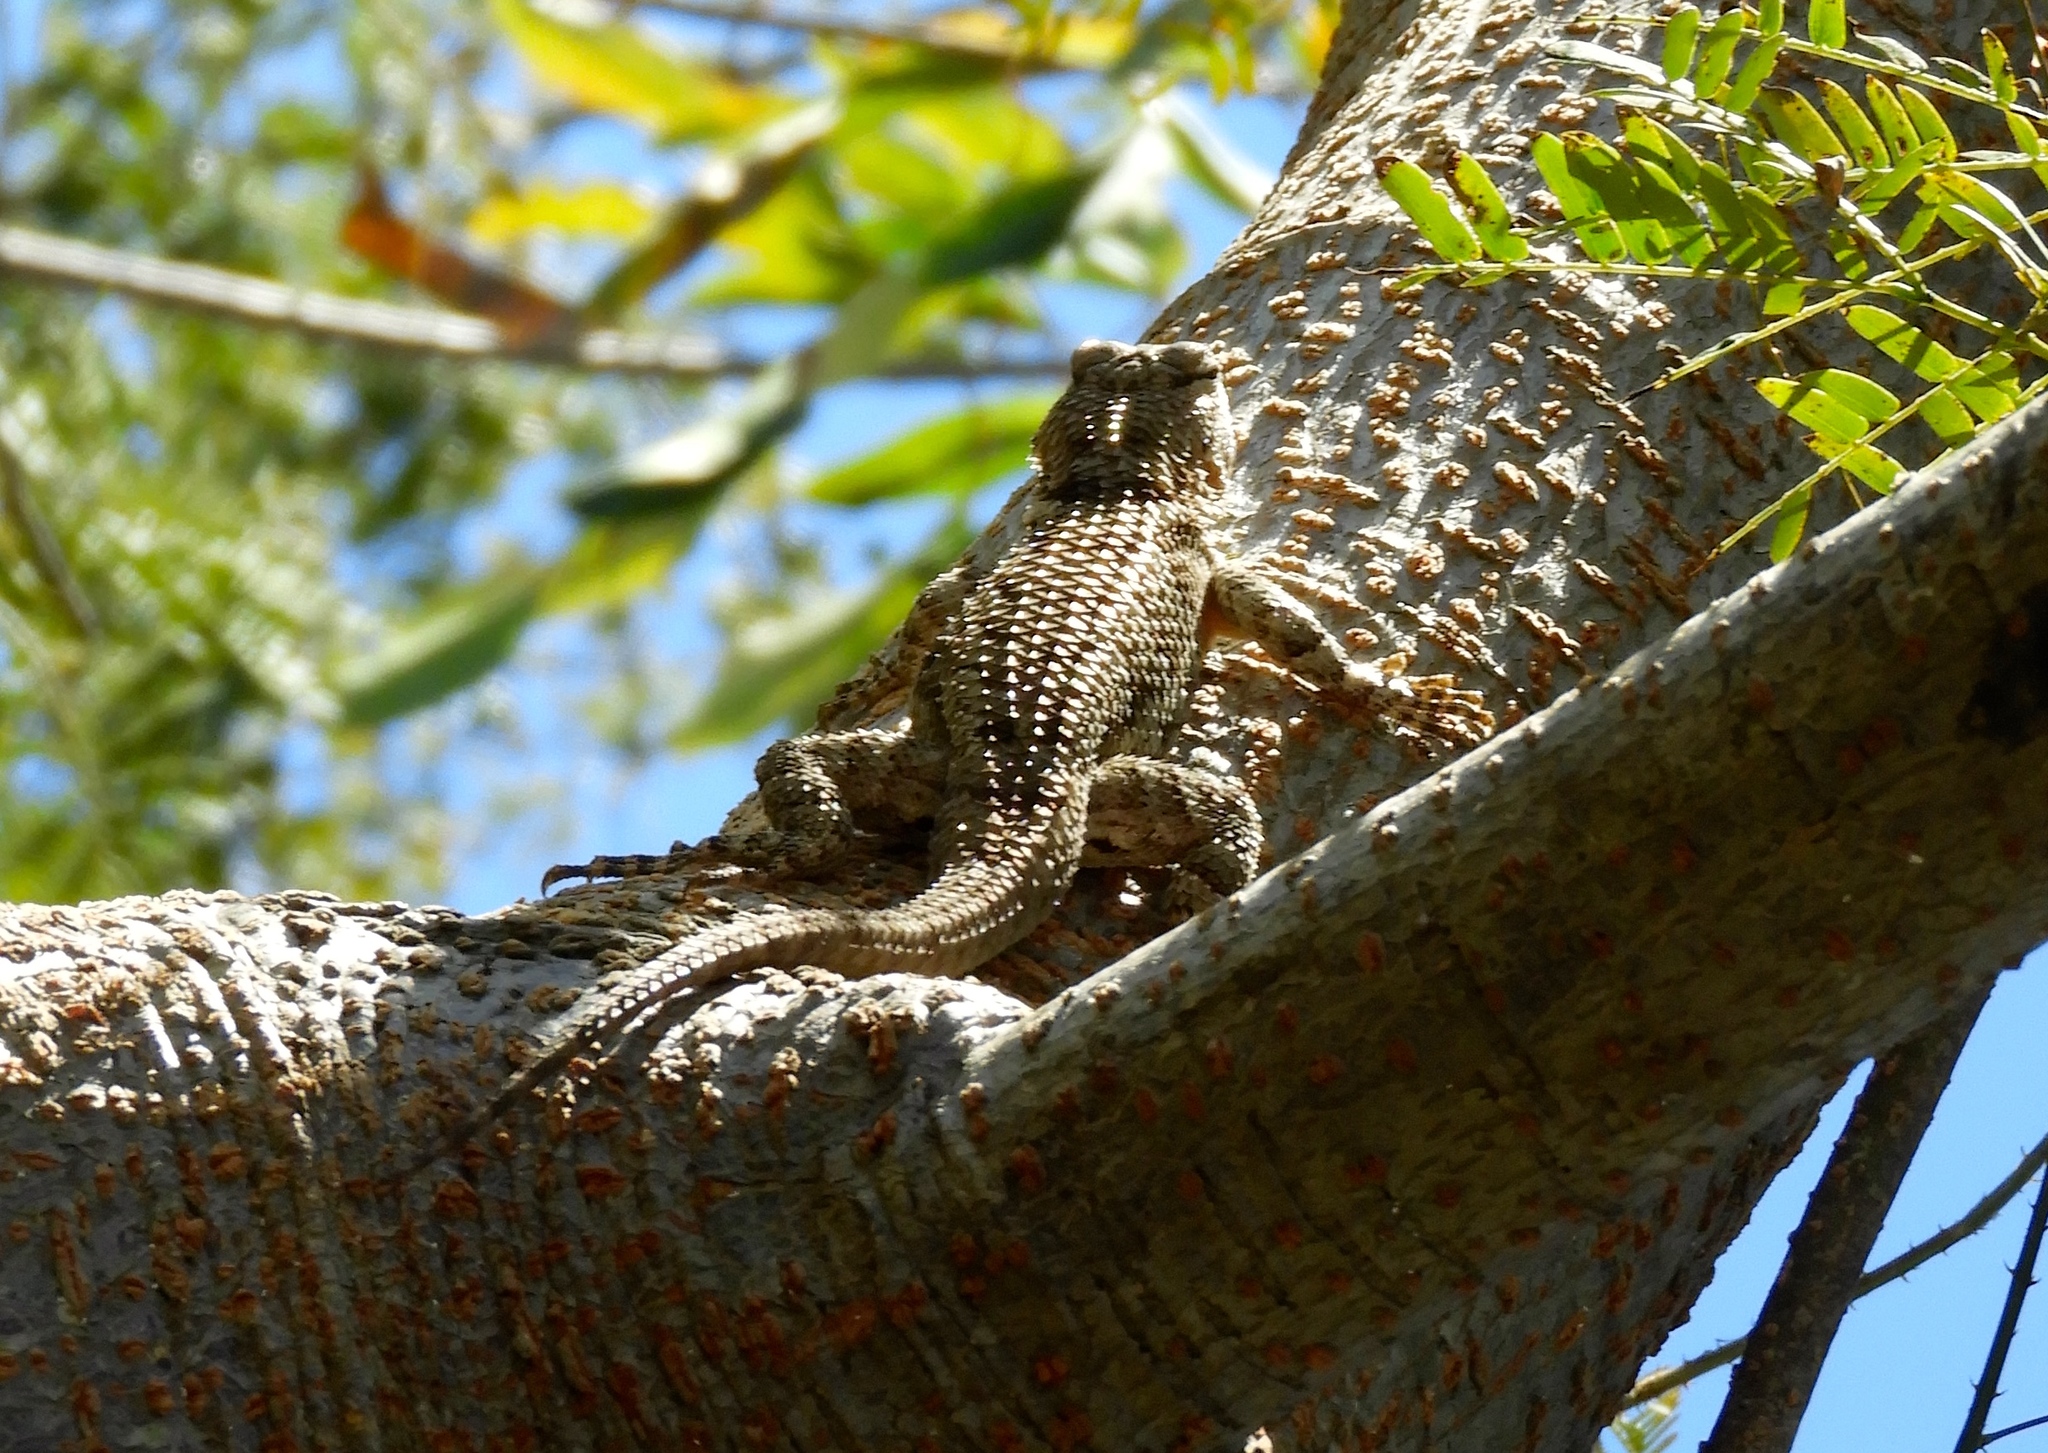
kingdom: Animalia
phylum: Chordata
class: Squamata
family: Phrynosomatidae
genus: Sceloporus
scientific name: Sceloporus clarkii
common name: Clark's spiny lizard
